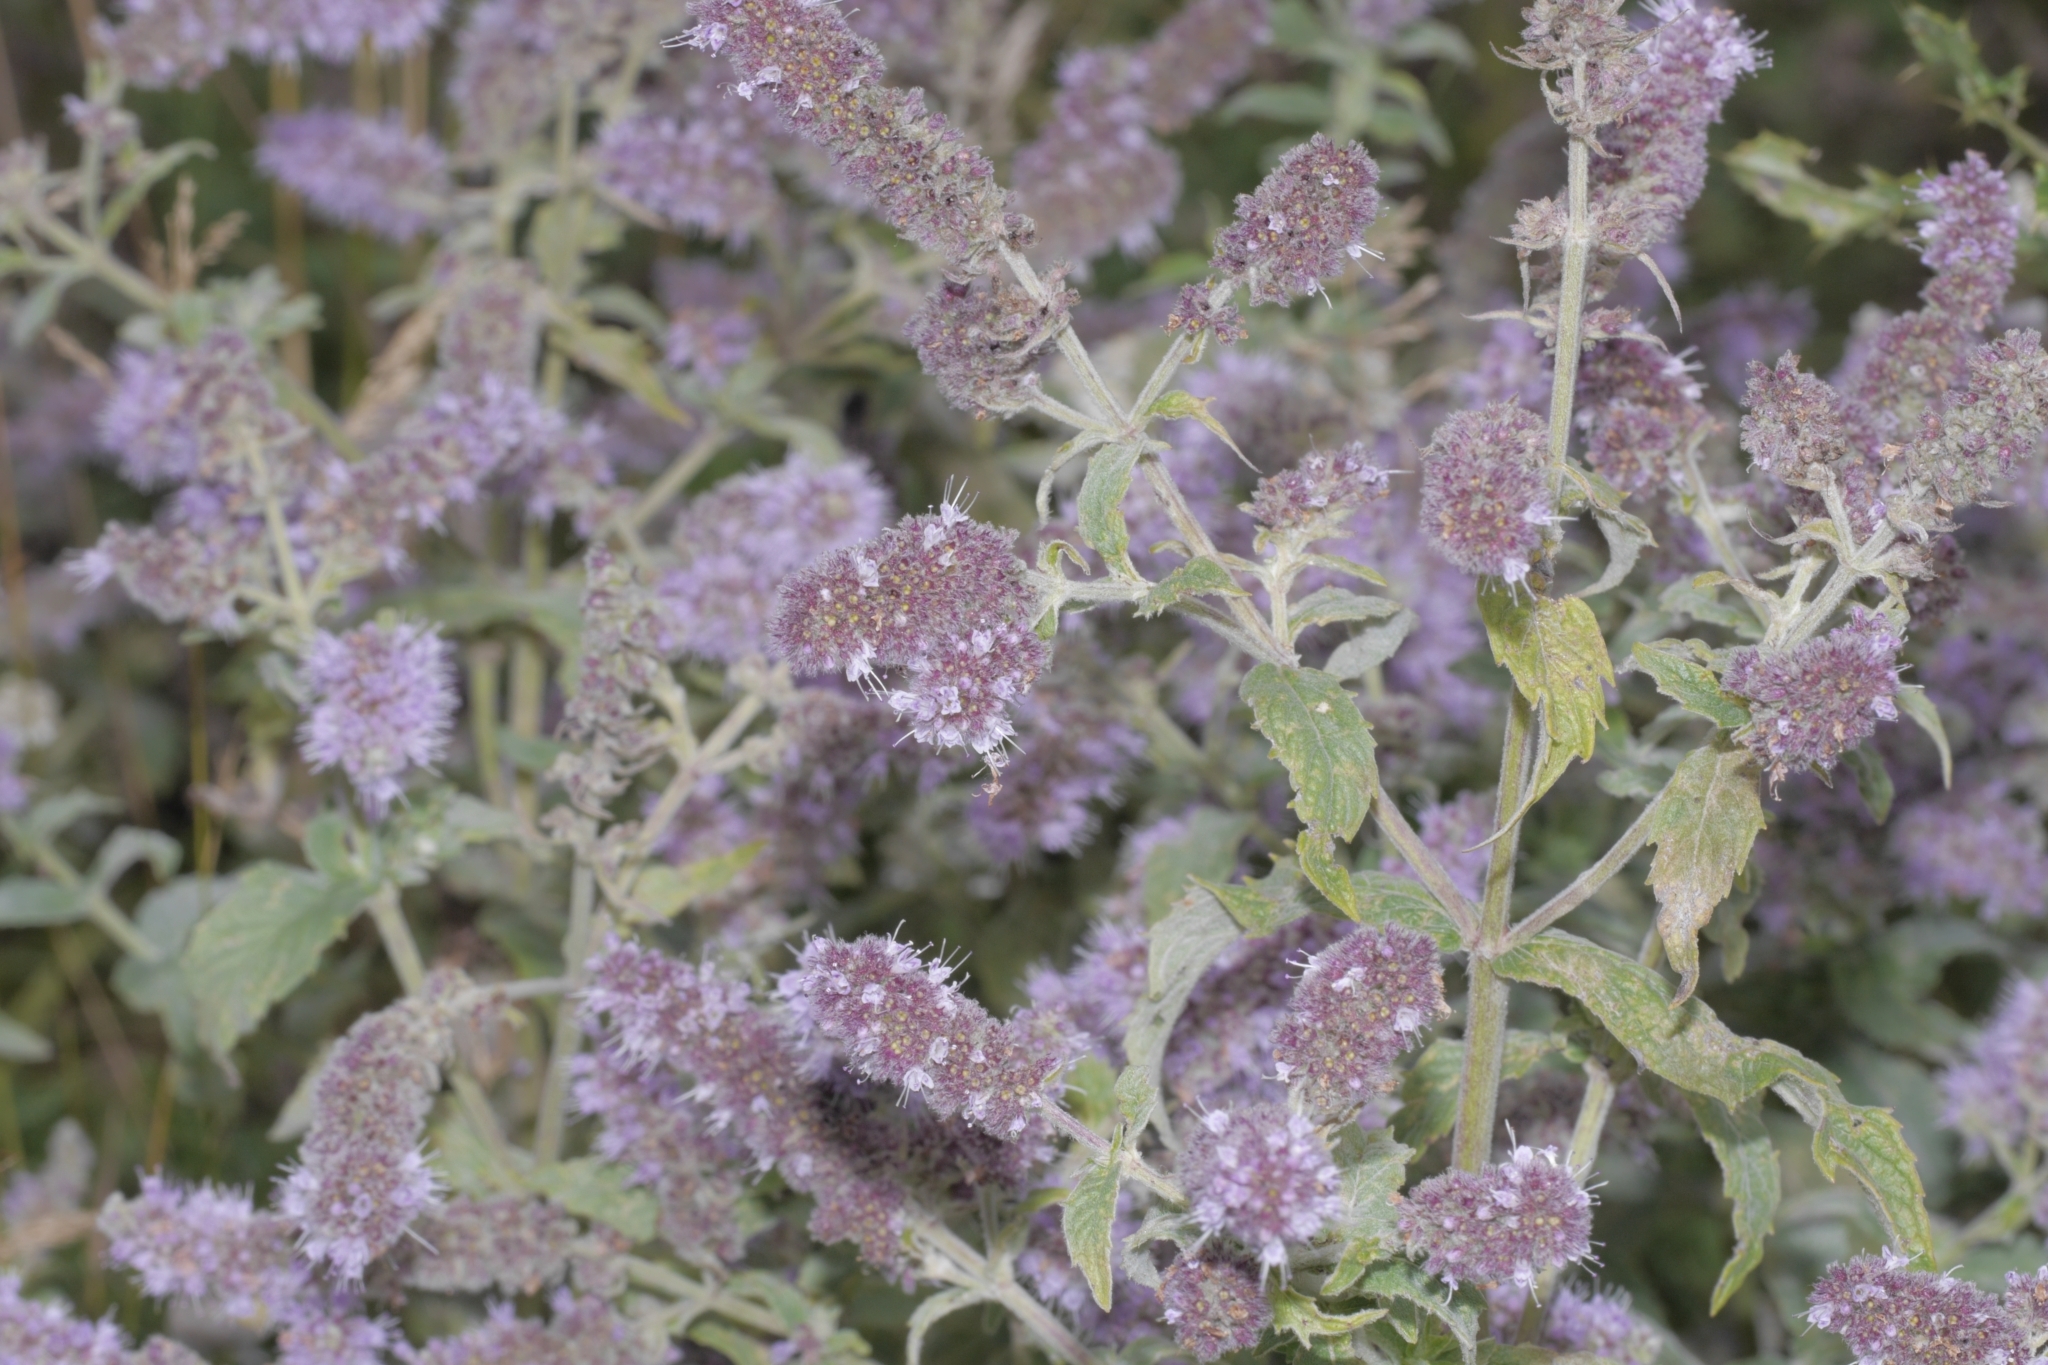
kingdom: Plantae
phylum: Tracheophyta
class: Magnoliopsida
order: Lamiales
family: Lamiaceae
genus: Mentha
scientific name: Mentha longifolia
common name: Horse mint
